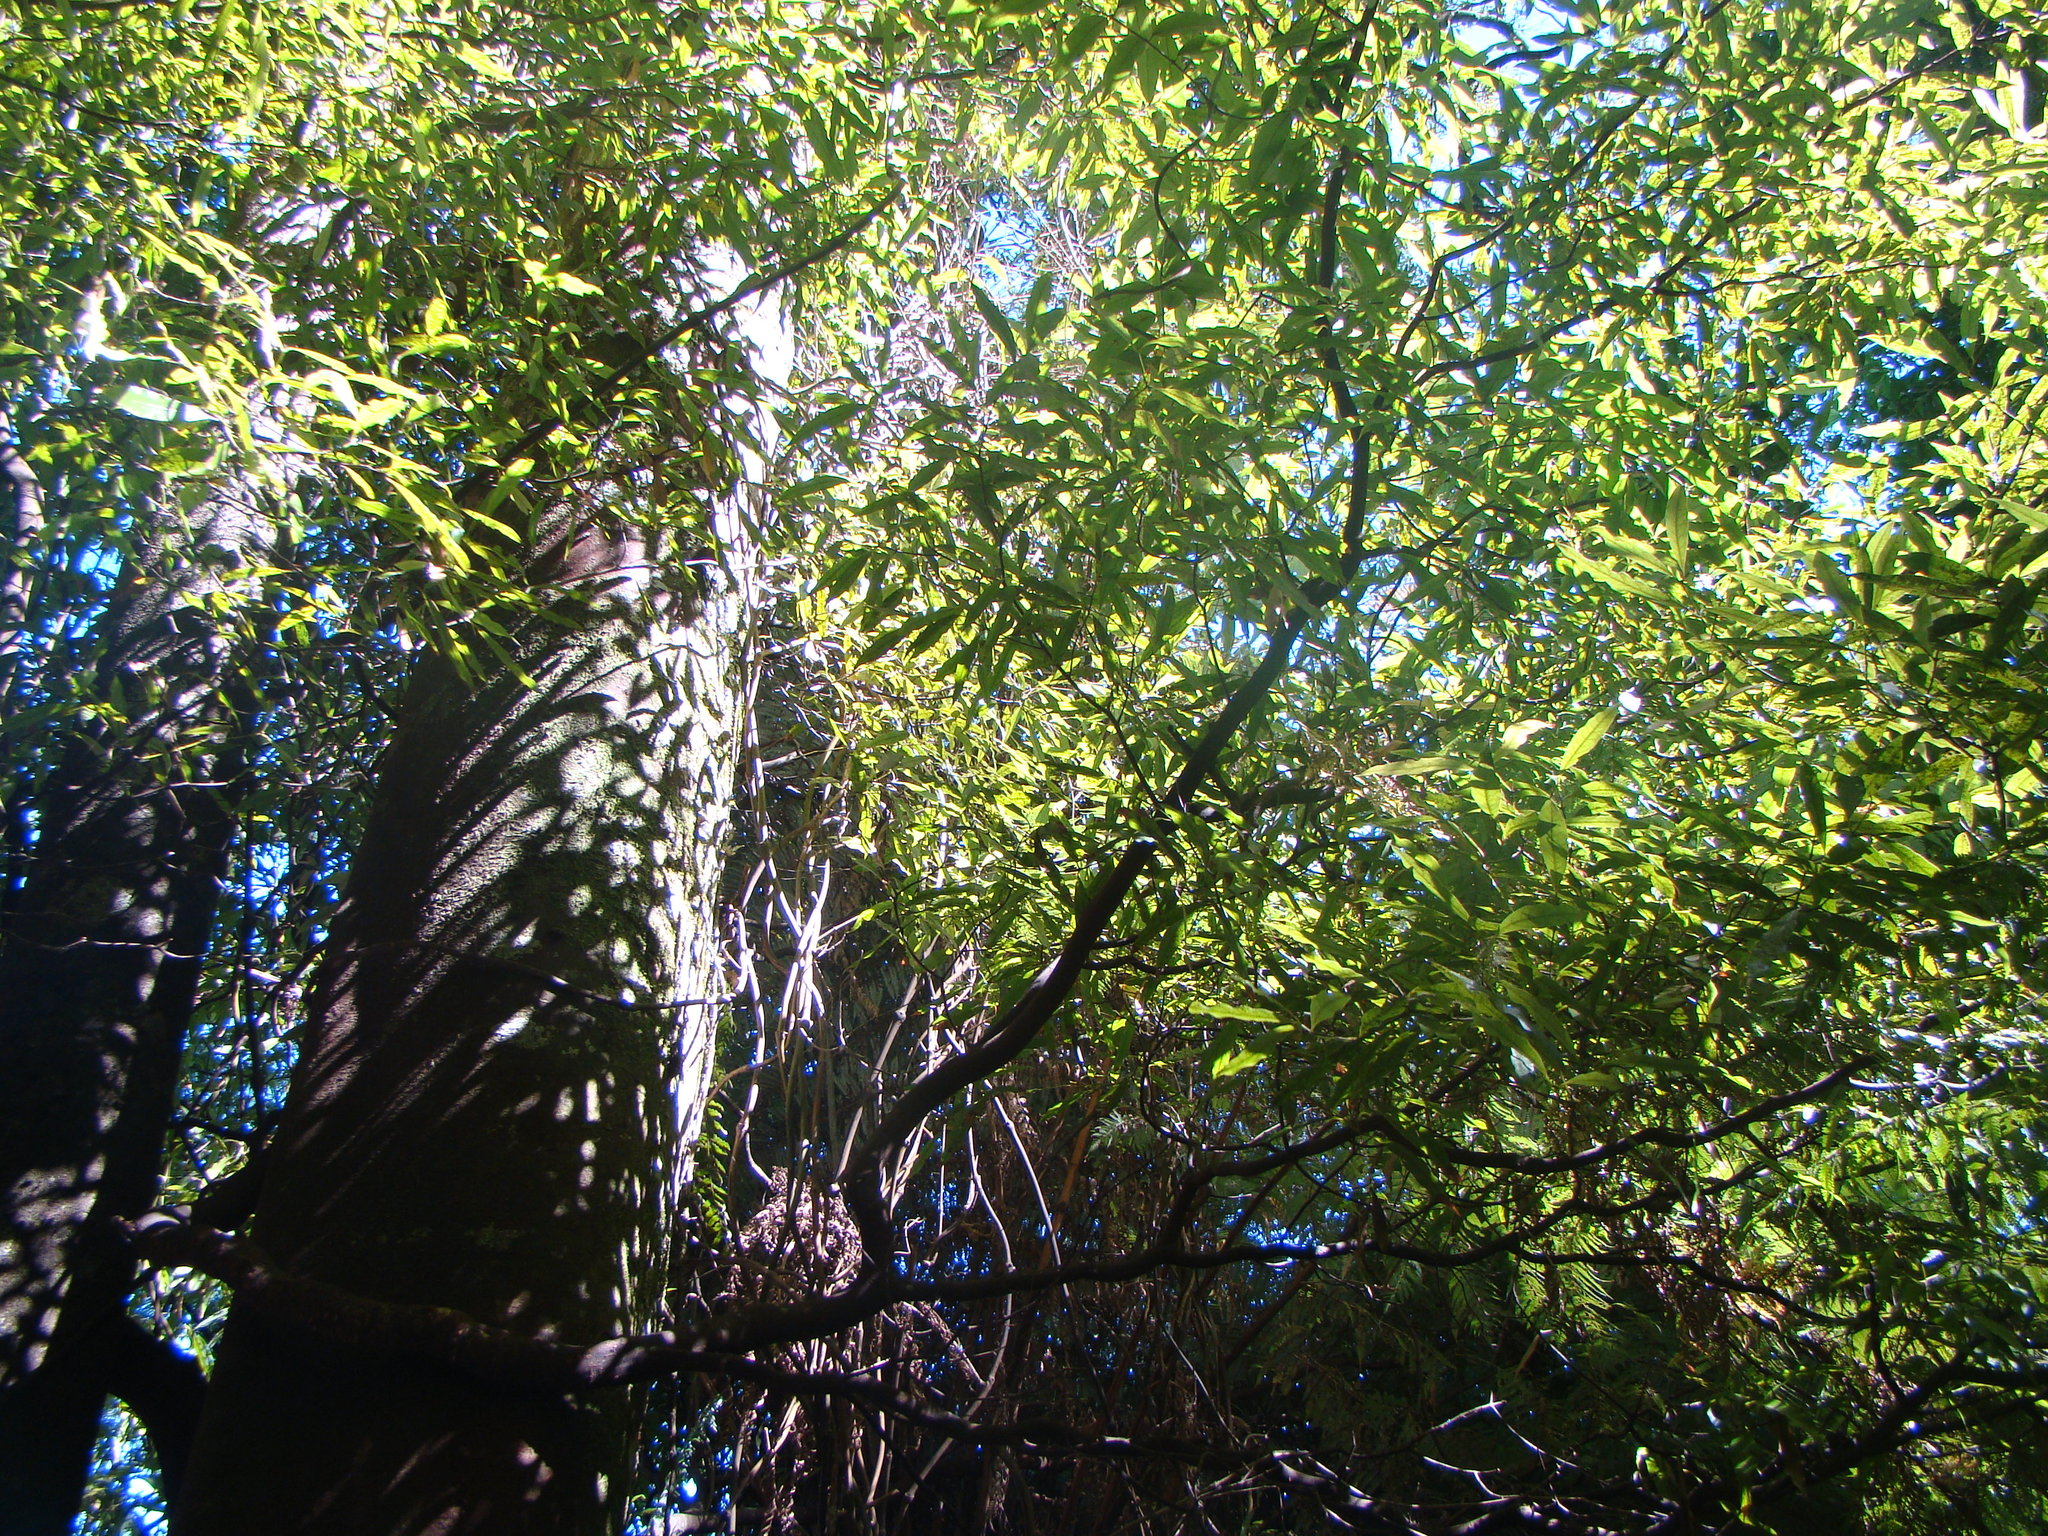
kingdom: Plantae
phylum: Tracheophyta
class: Magnoliopsida
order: Laurales
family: Lauraceae
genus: Beilschmiedia
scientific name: Beilschmiedia tawa
